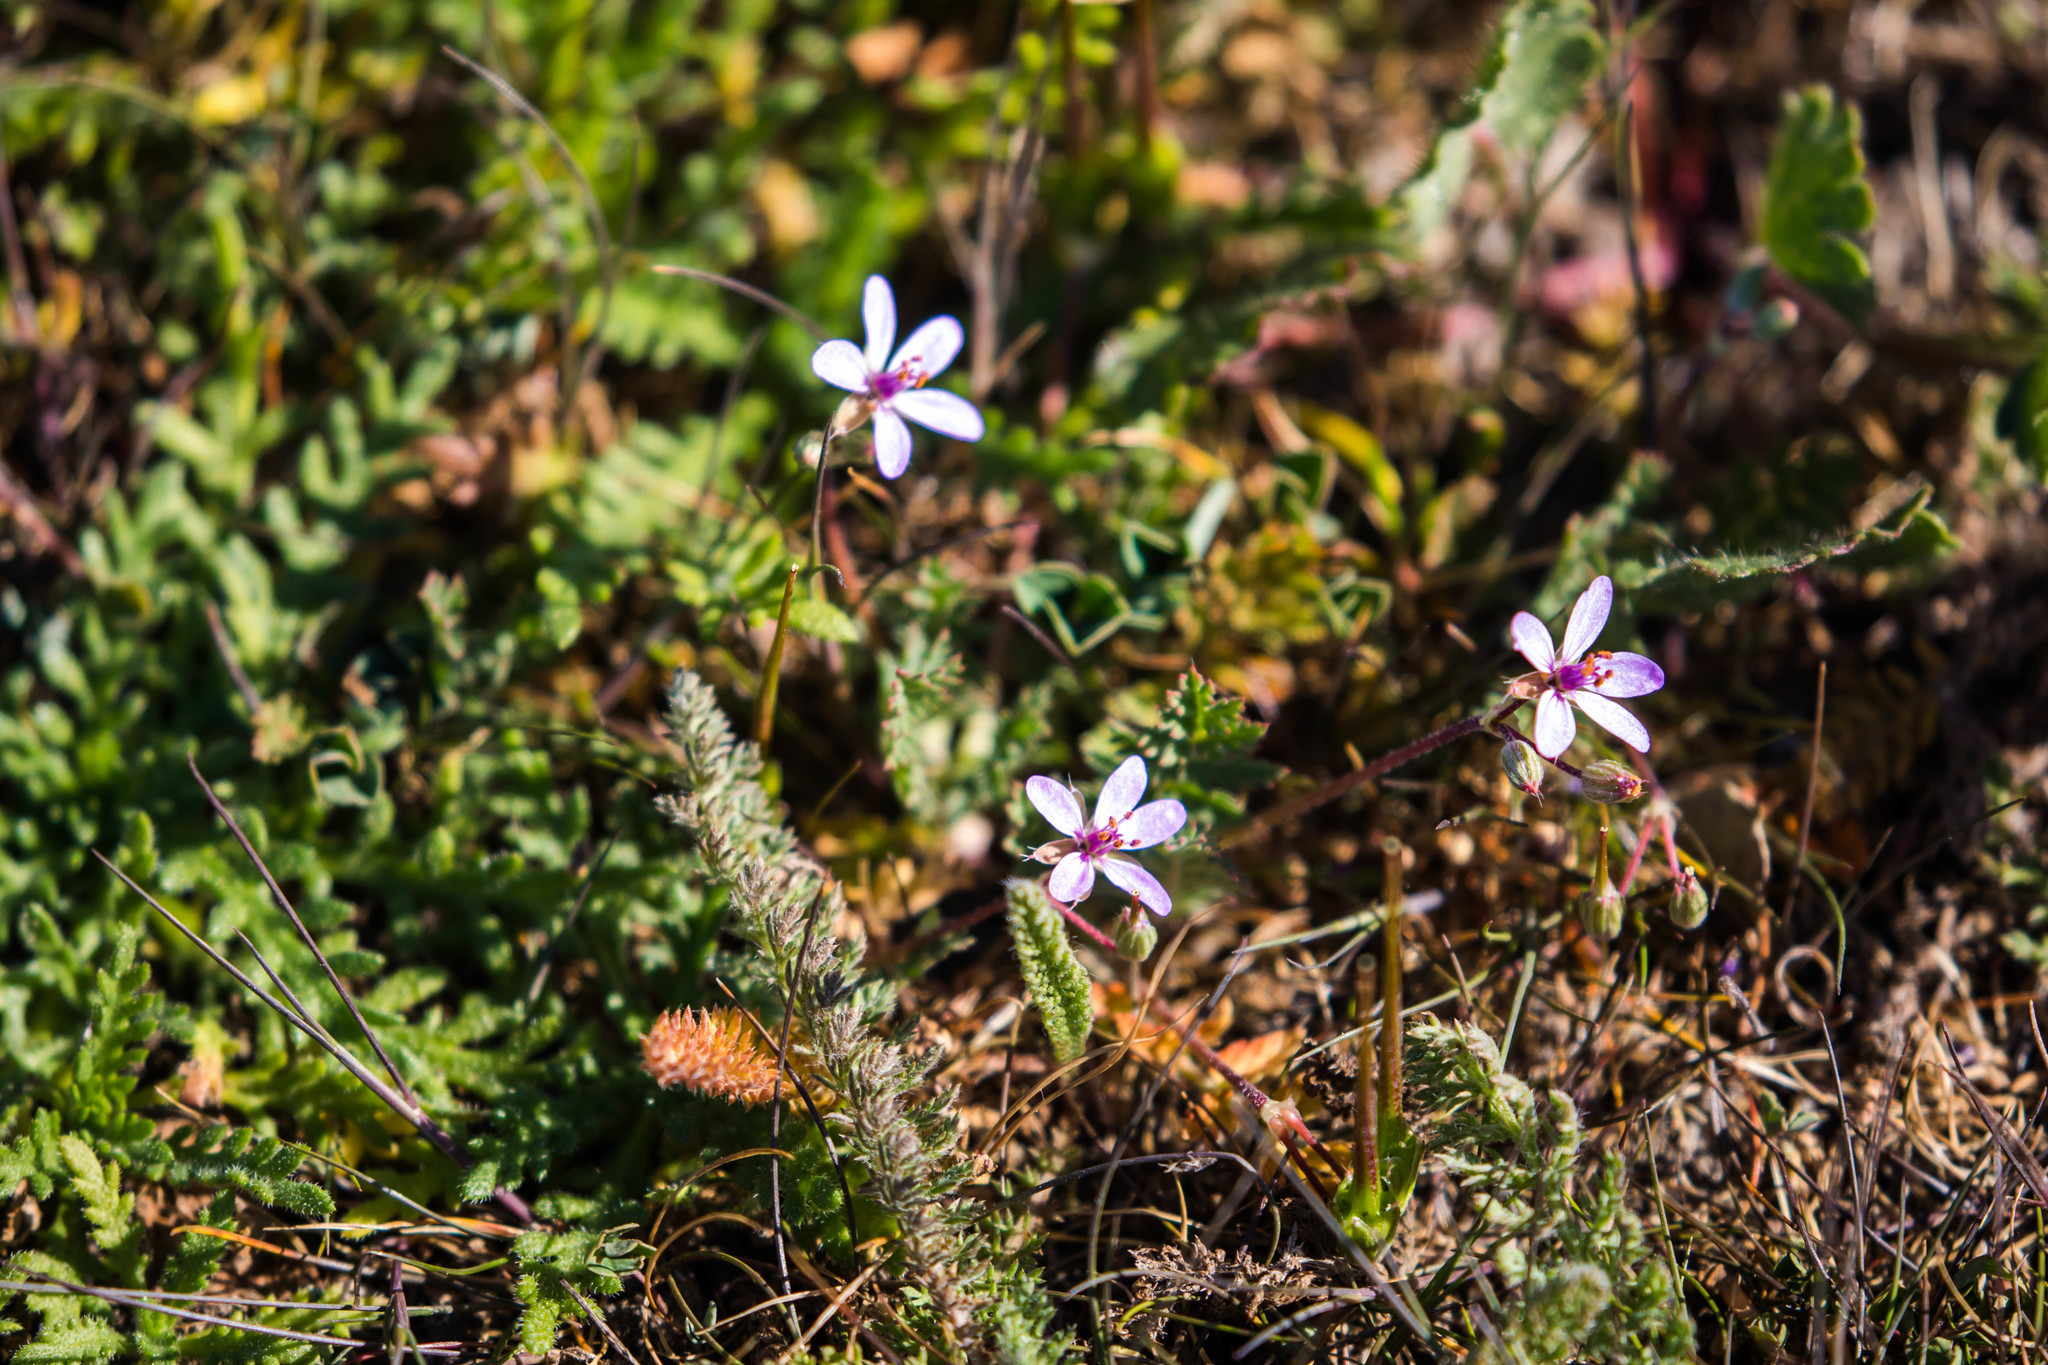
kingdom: Plantae
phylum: Tracheophyta
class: Magnoliopsida
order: Geraniales
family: Geraniaceae
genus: Erodium
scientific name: Erodium cicutarium
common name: Common stork's-bill
